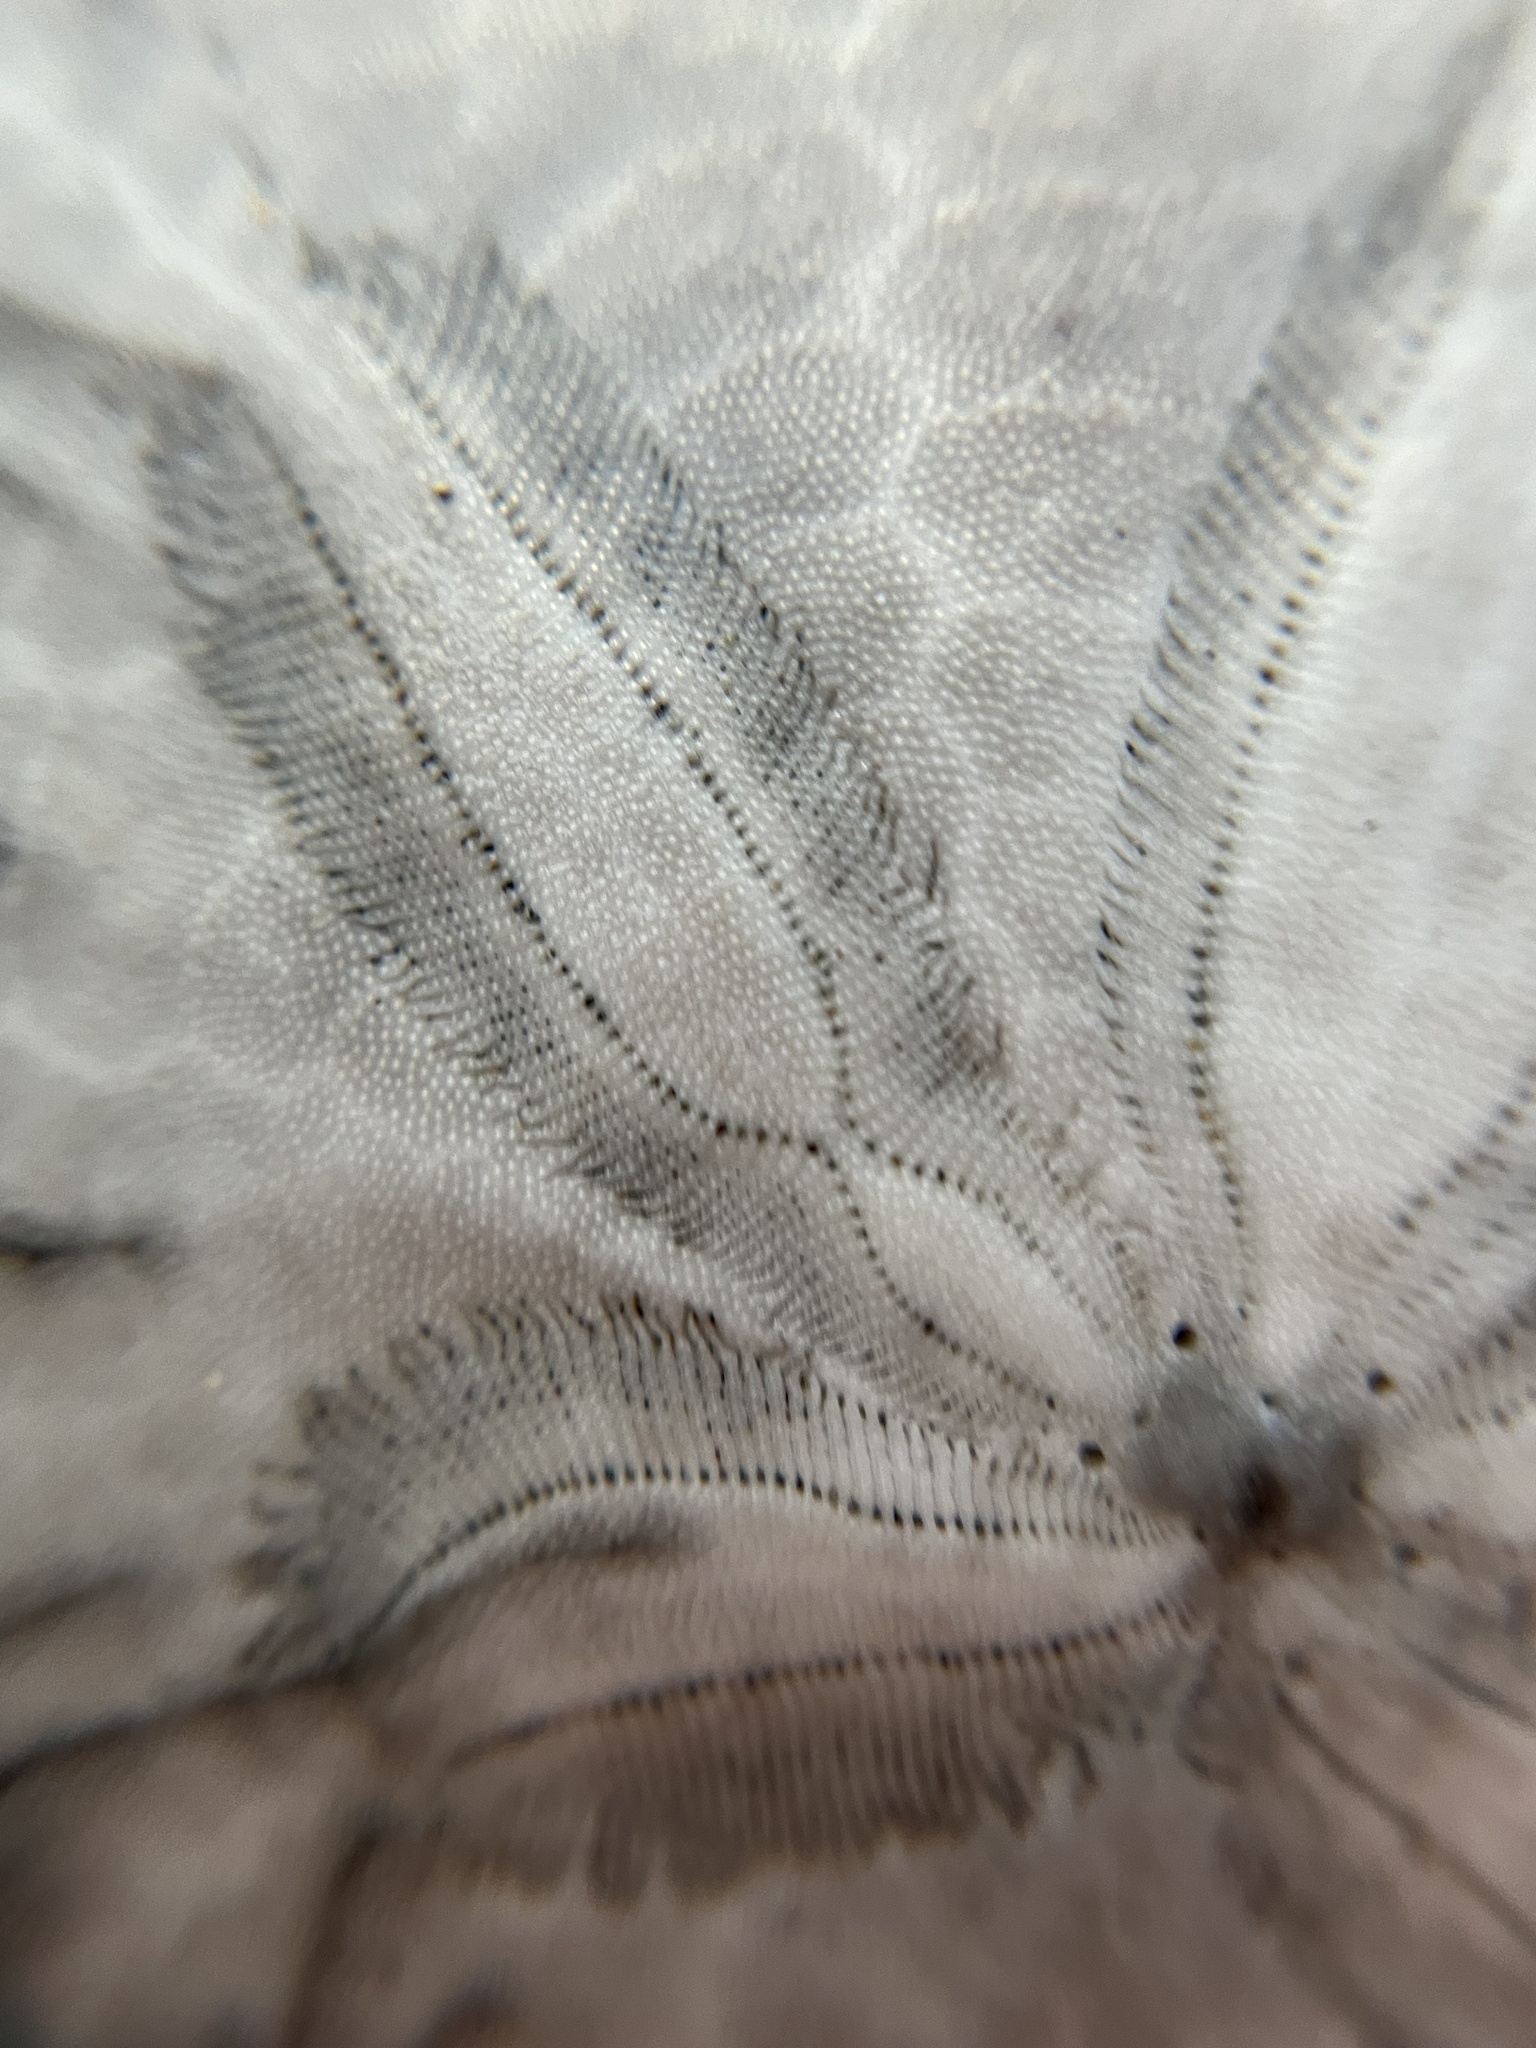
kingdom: Animalia
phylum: Echinodermata
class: Echinoidea
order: Echinolampadacea
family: Dendrasteridae
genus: Dendraster
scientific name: Dendraster excentricus
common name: Eccentric sand dollar sea urchin
